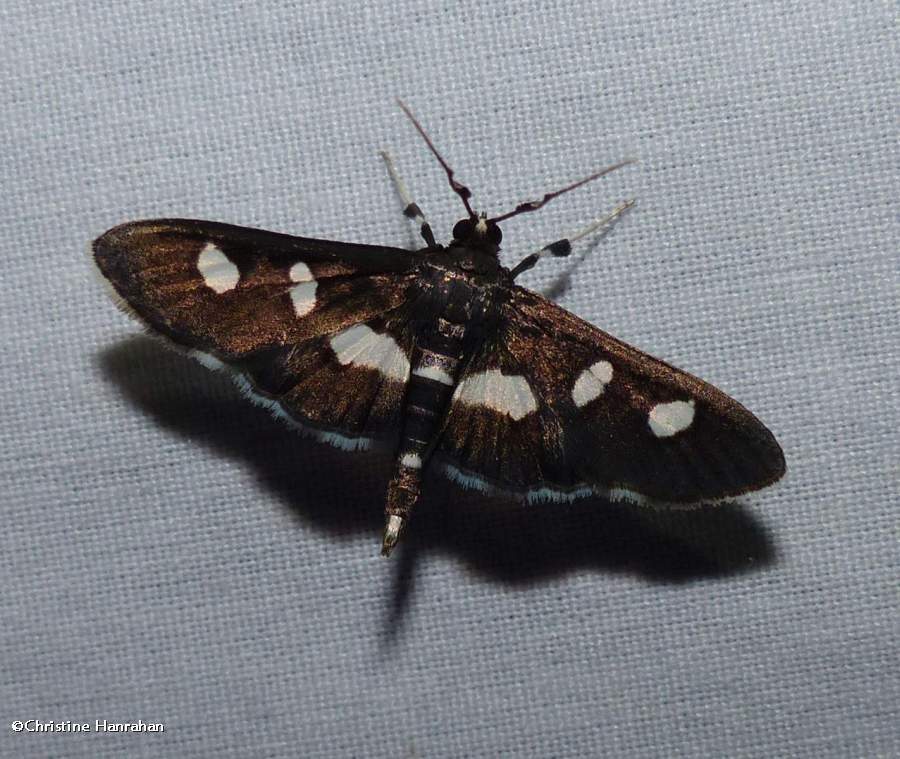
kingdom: Animalia
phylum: Arthropoda
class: Insecta
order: Lepidoptera
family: Crambidae
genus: Desmia
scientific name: Desmia
